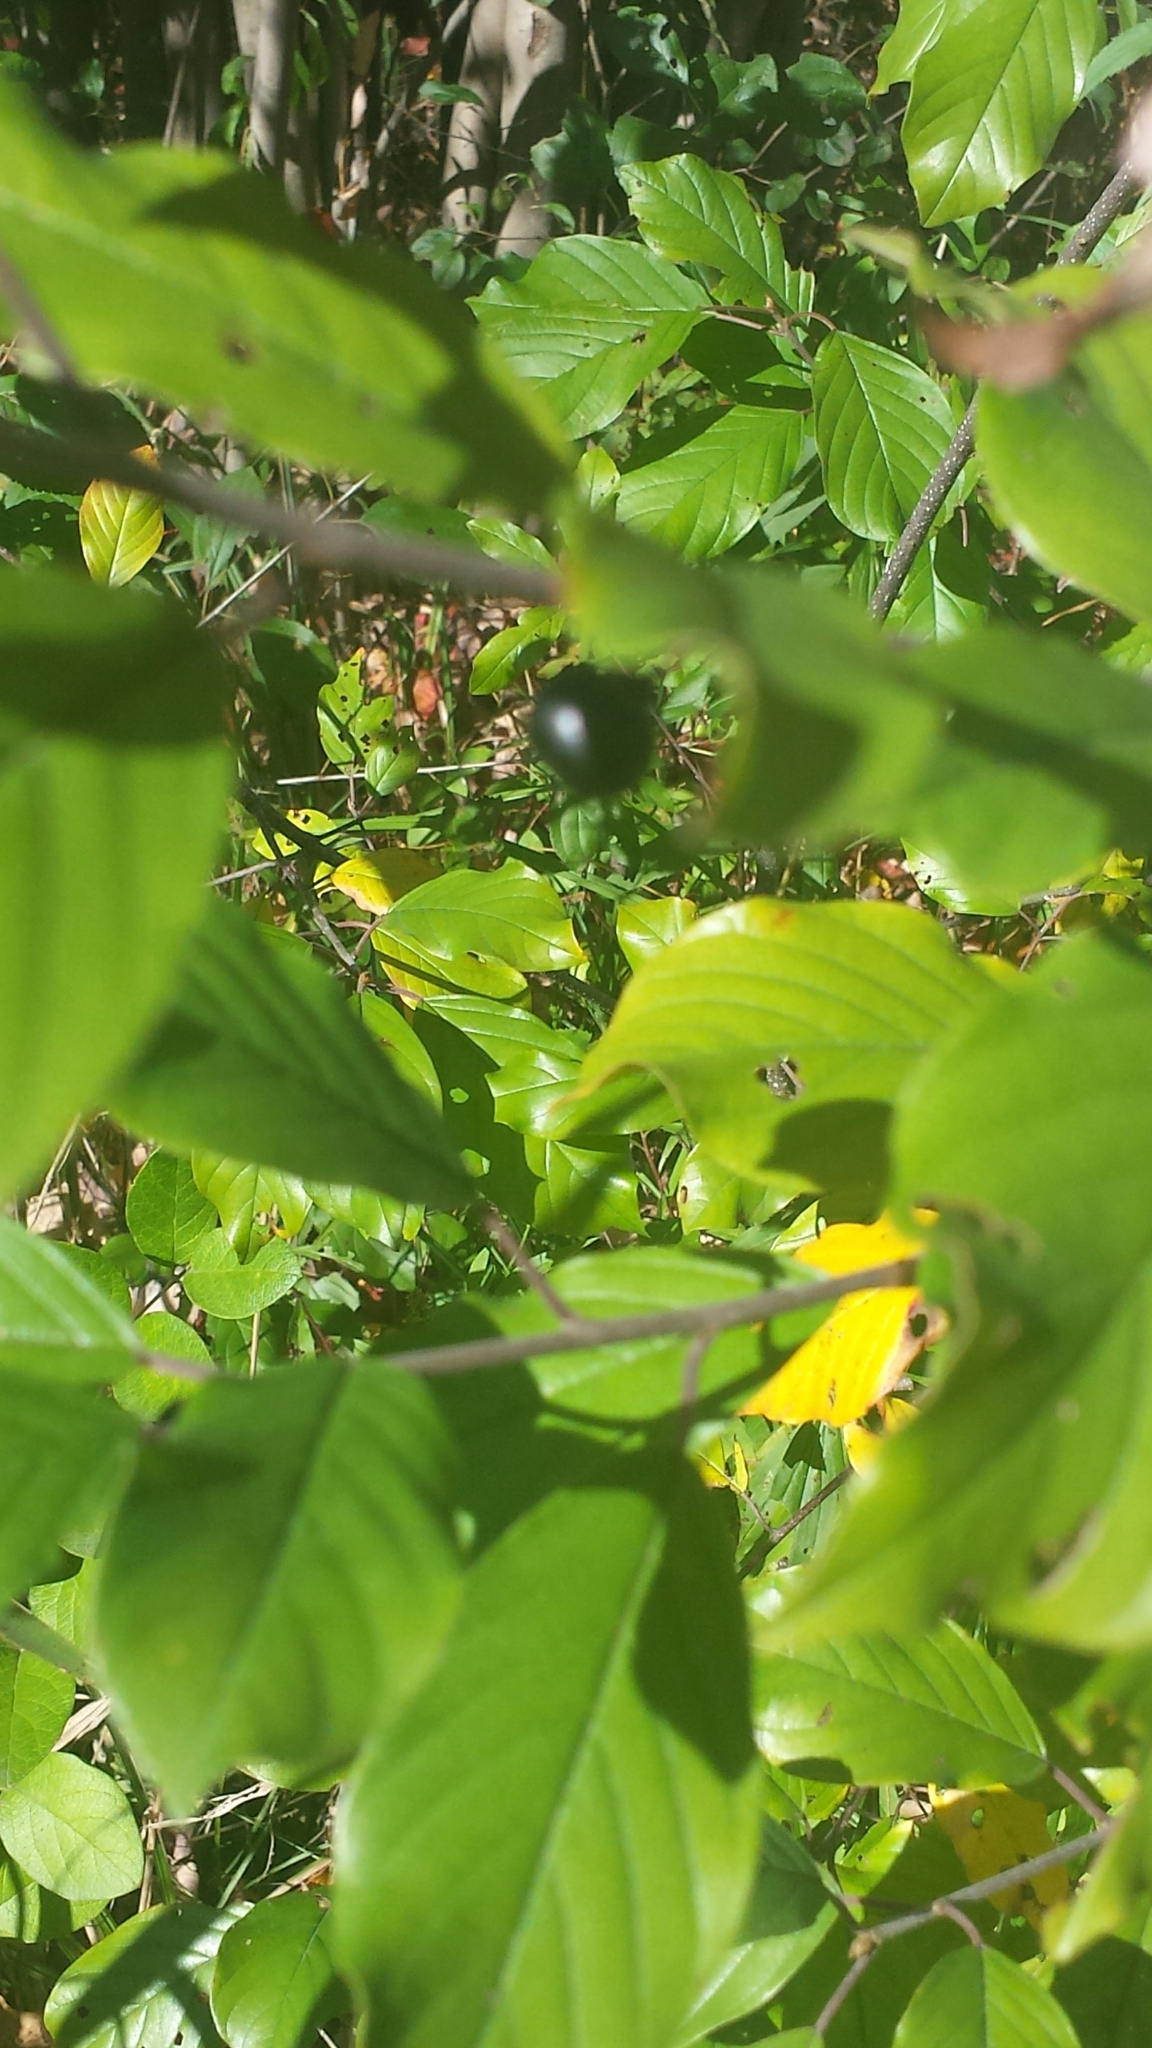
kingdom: Plantae
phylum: Tracheophyta
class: Magnoliopsida
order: Rosales
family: Rhamnaceae
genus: Frangula
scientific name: Frangula alnus
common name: Alder buckthorn
